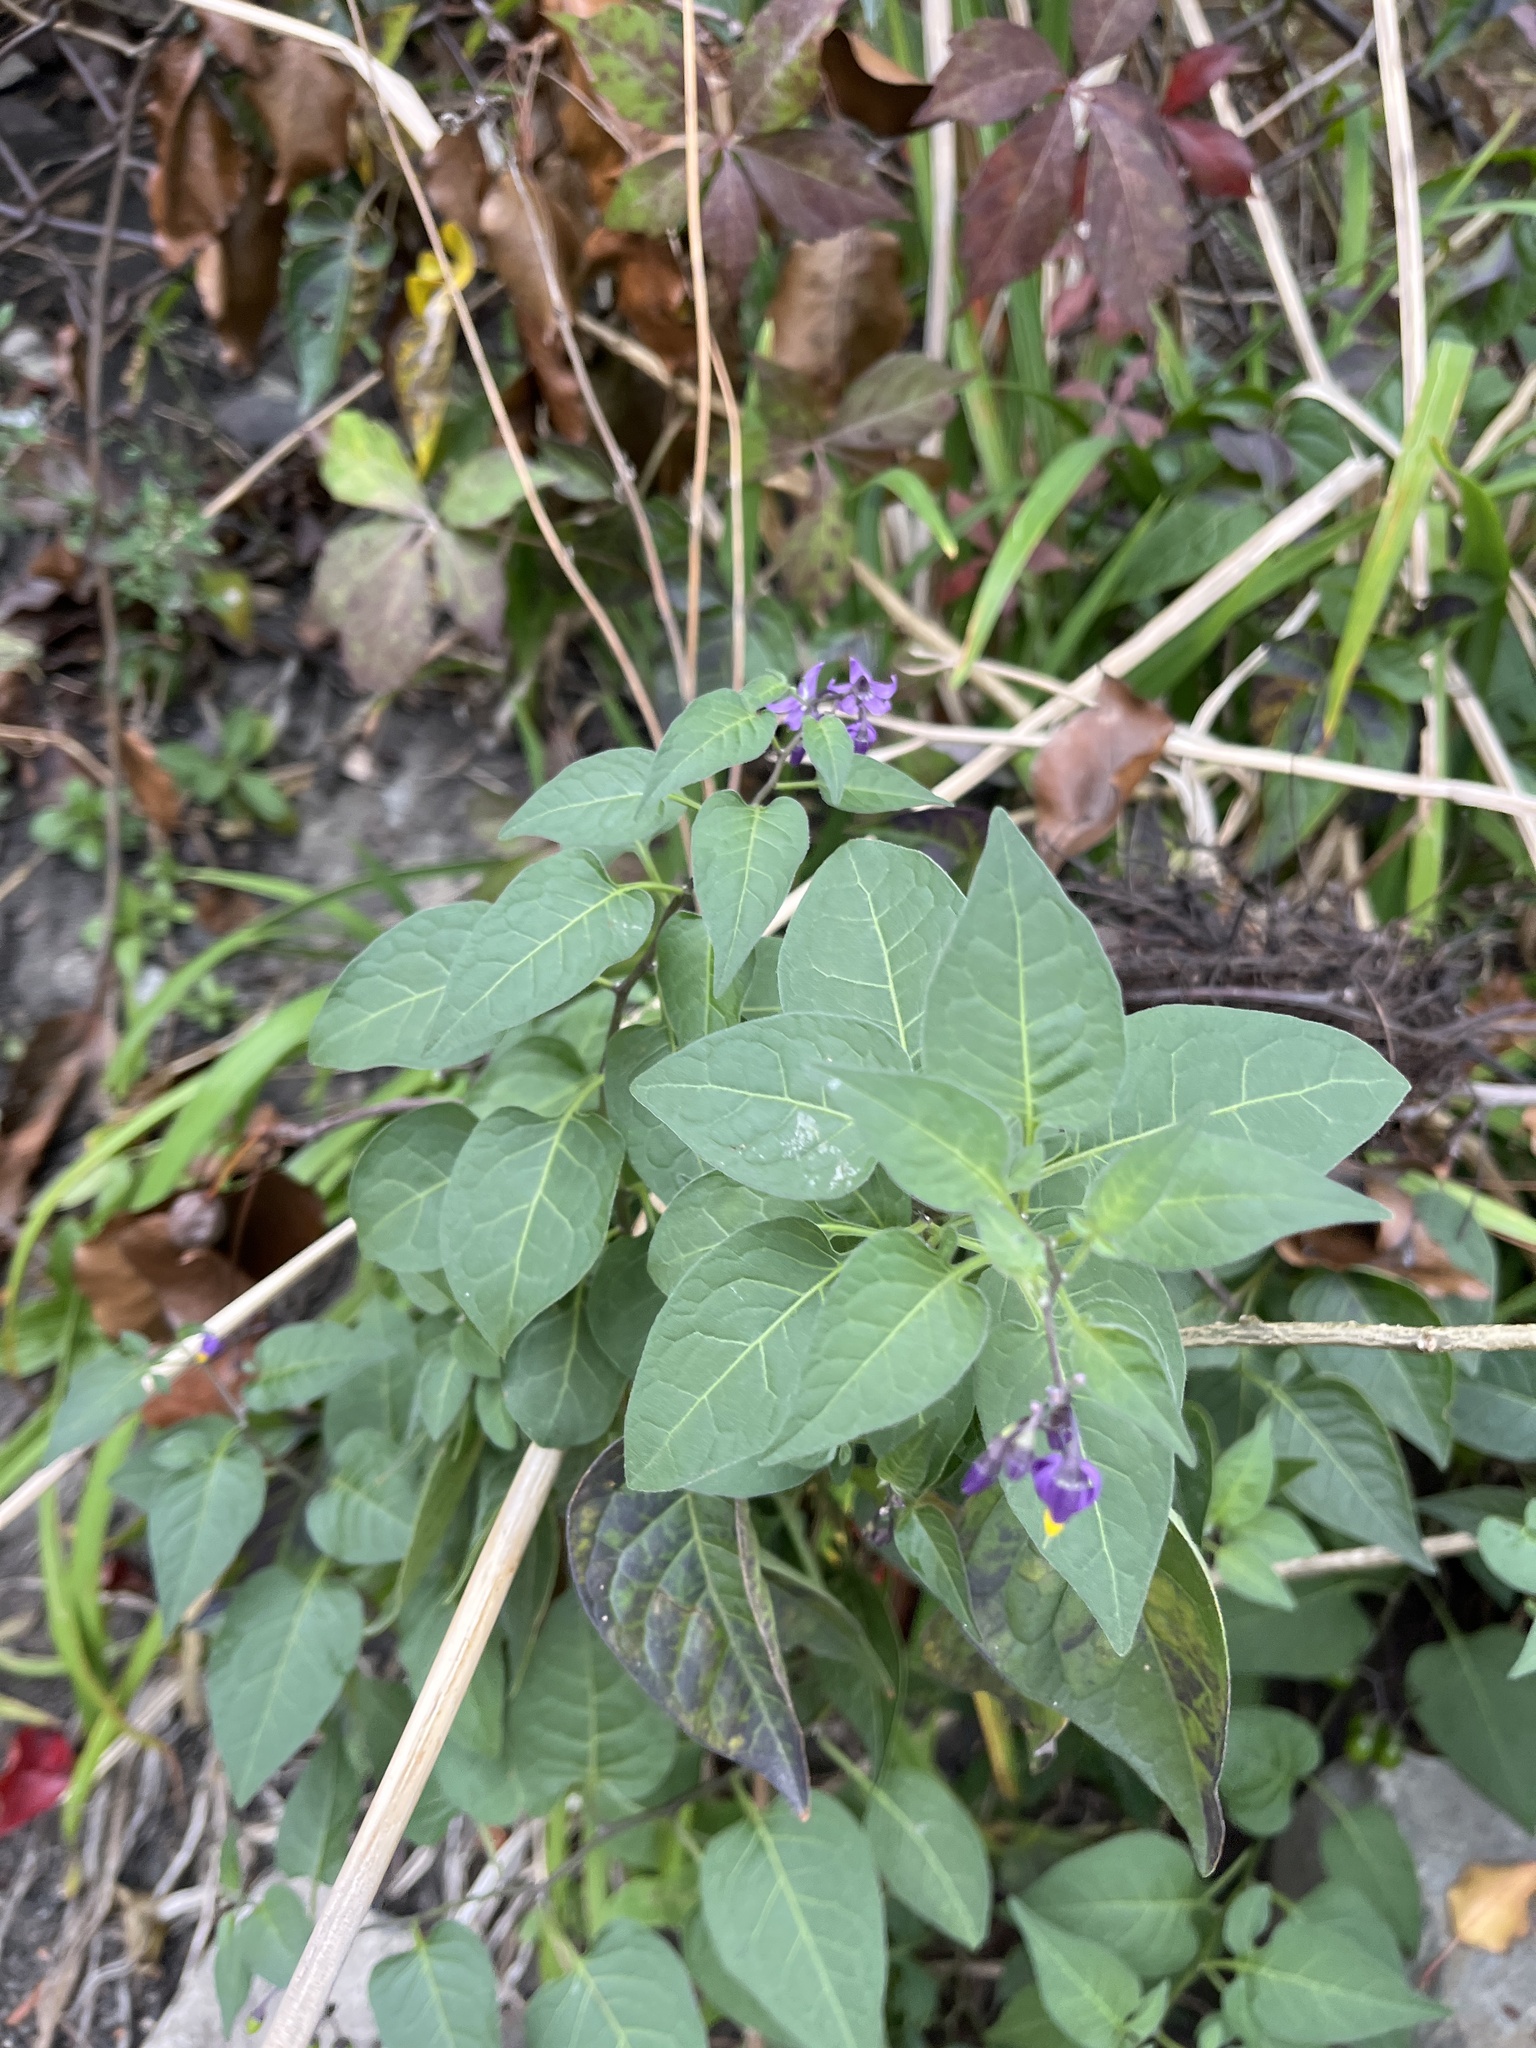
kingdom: Plantae
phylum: Tracheophyta
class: Magnoliopsida
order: Solanales
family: Solanaceae
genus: Solanum
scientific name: Solanum dulcamara
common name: Climbing nightshade
